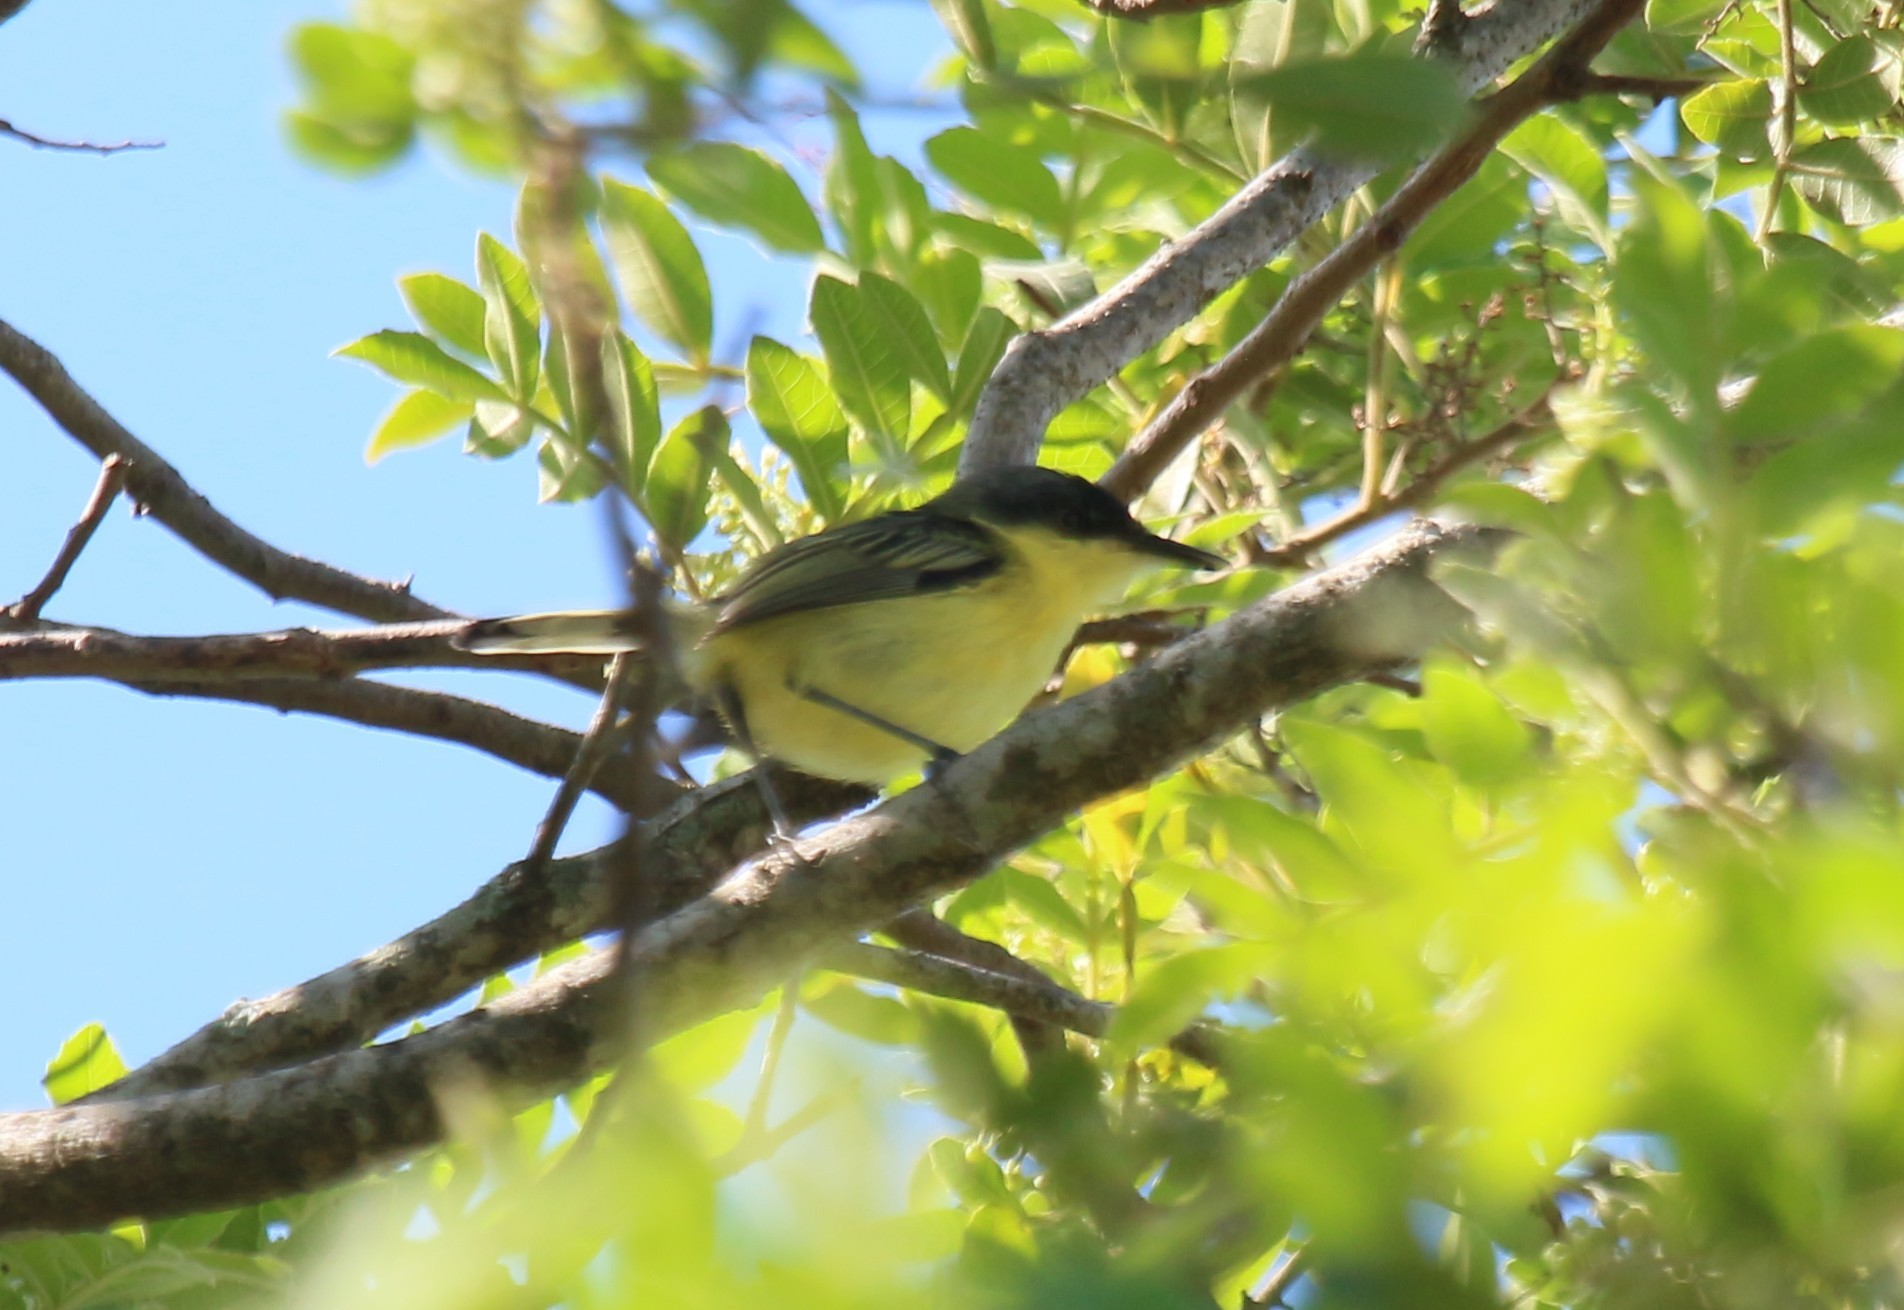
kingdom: Animalia
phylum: Chordata
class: Aves
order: Passeriformes
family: Tyrannidae
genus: Todirostrum
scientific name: Todirostrum cinereum
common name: Common tody-flycatcher
